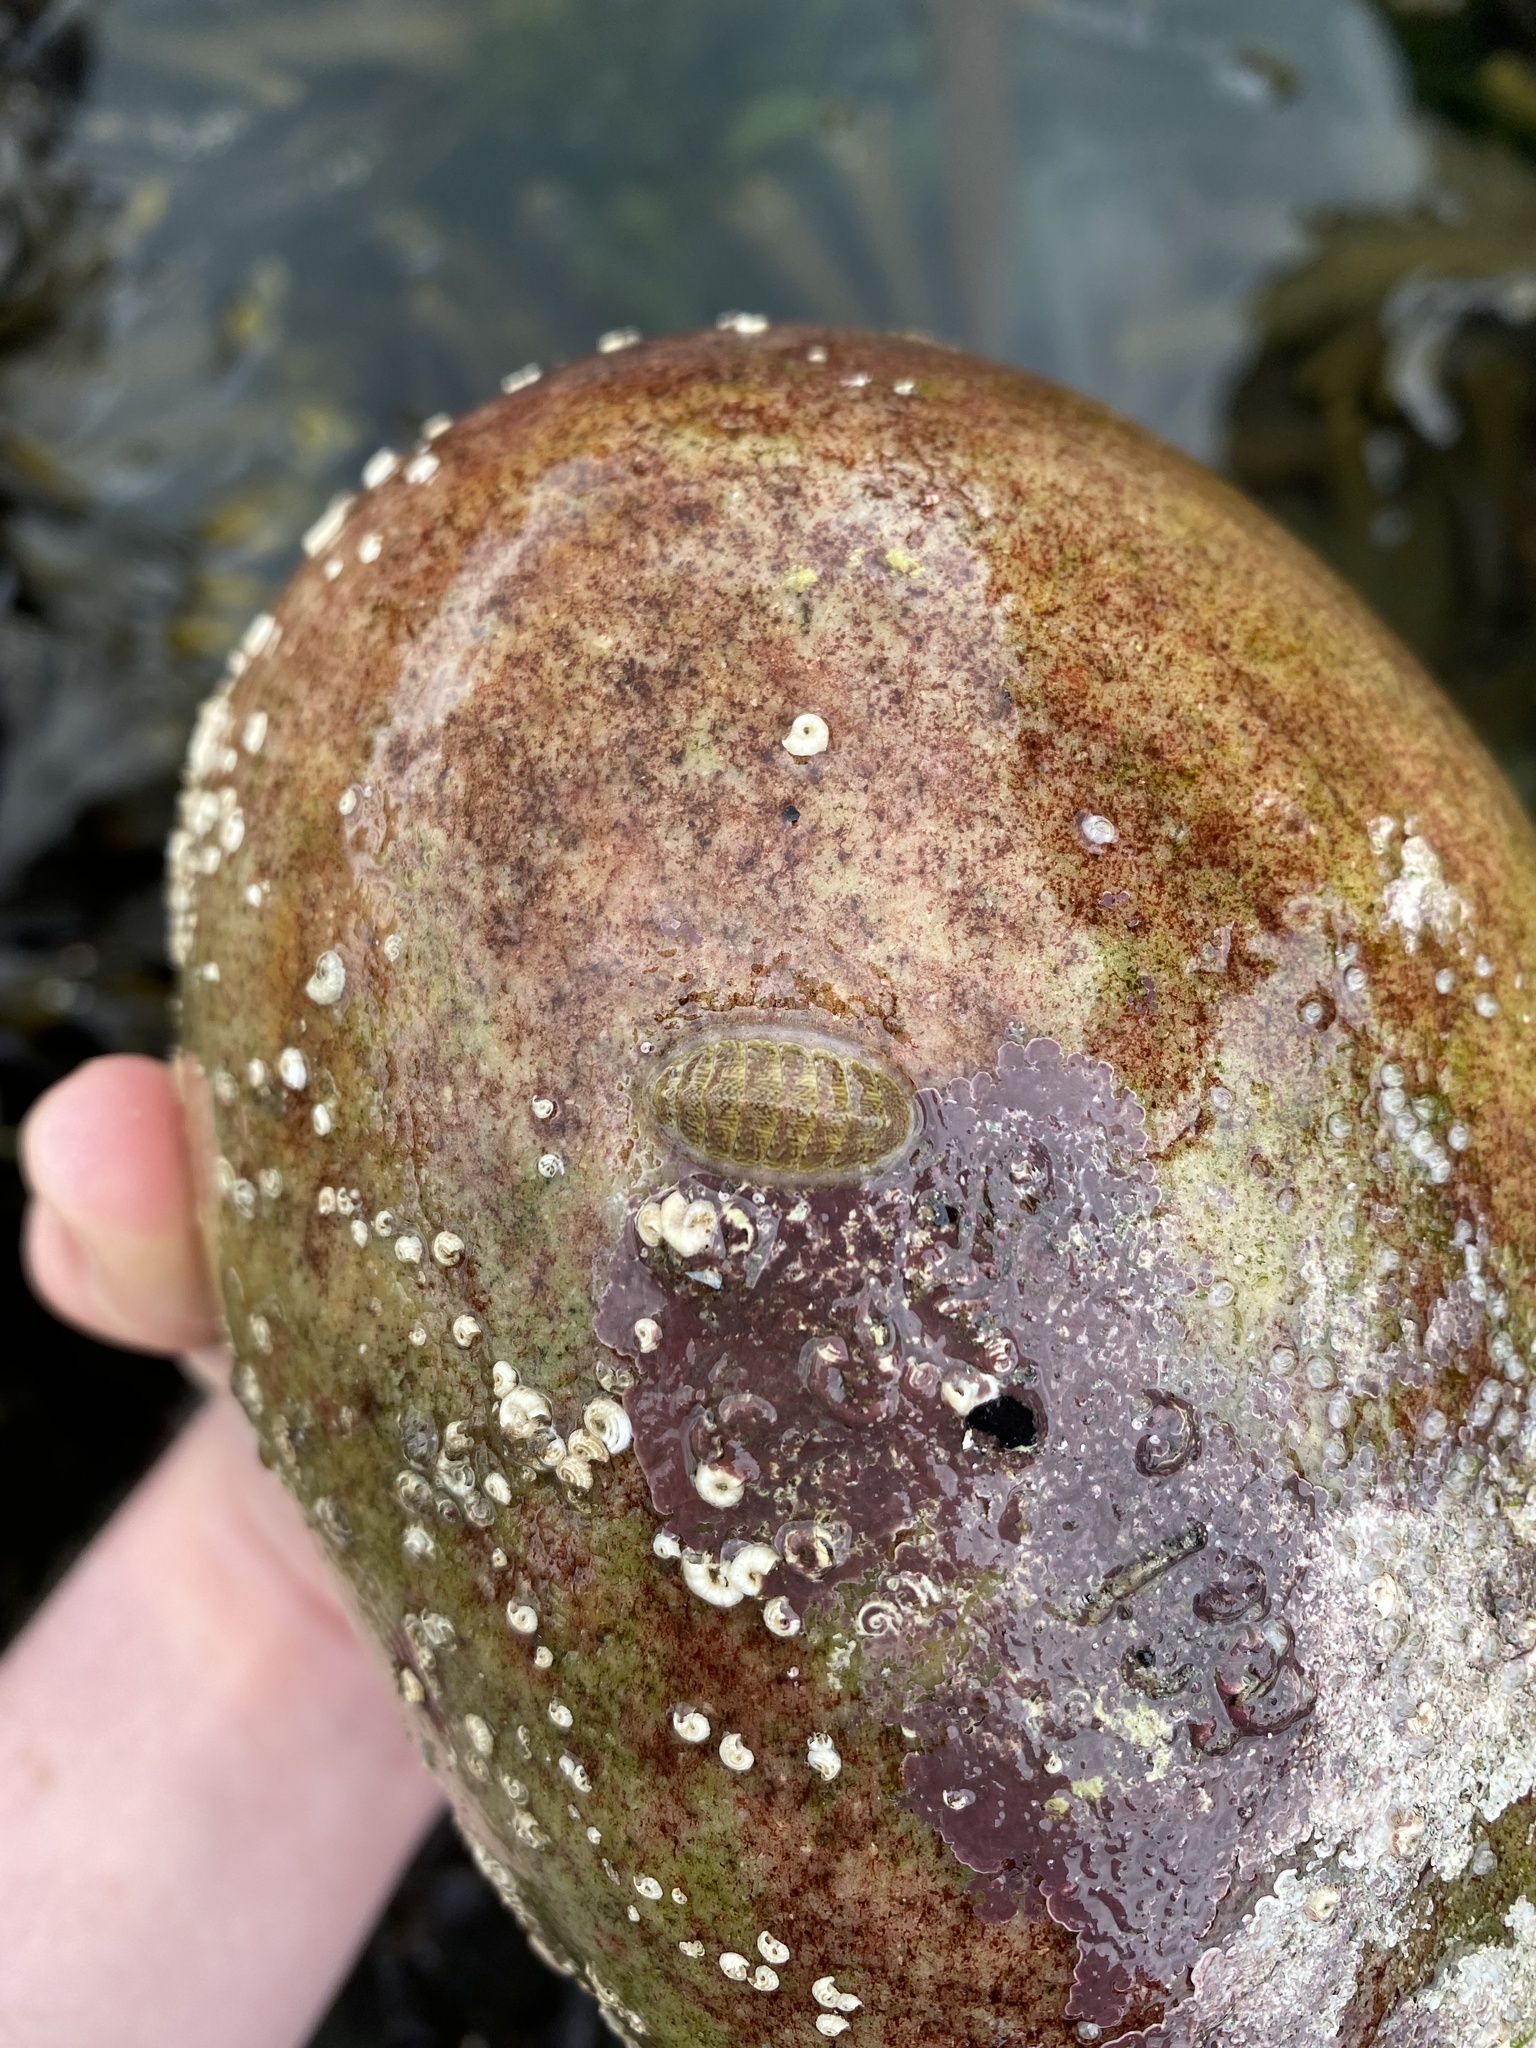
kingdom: Animalia
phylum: Mollusca
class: Polyplacophora
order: Chitonida
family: Tonicellidae
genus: Lepidochitona
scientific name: Lepidochitona cinerea
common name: Cinereous chiton
